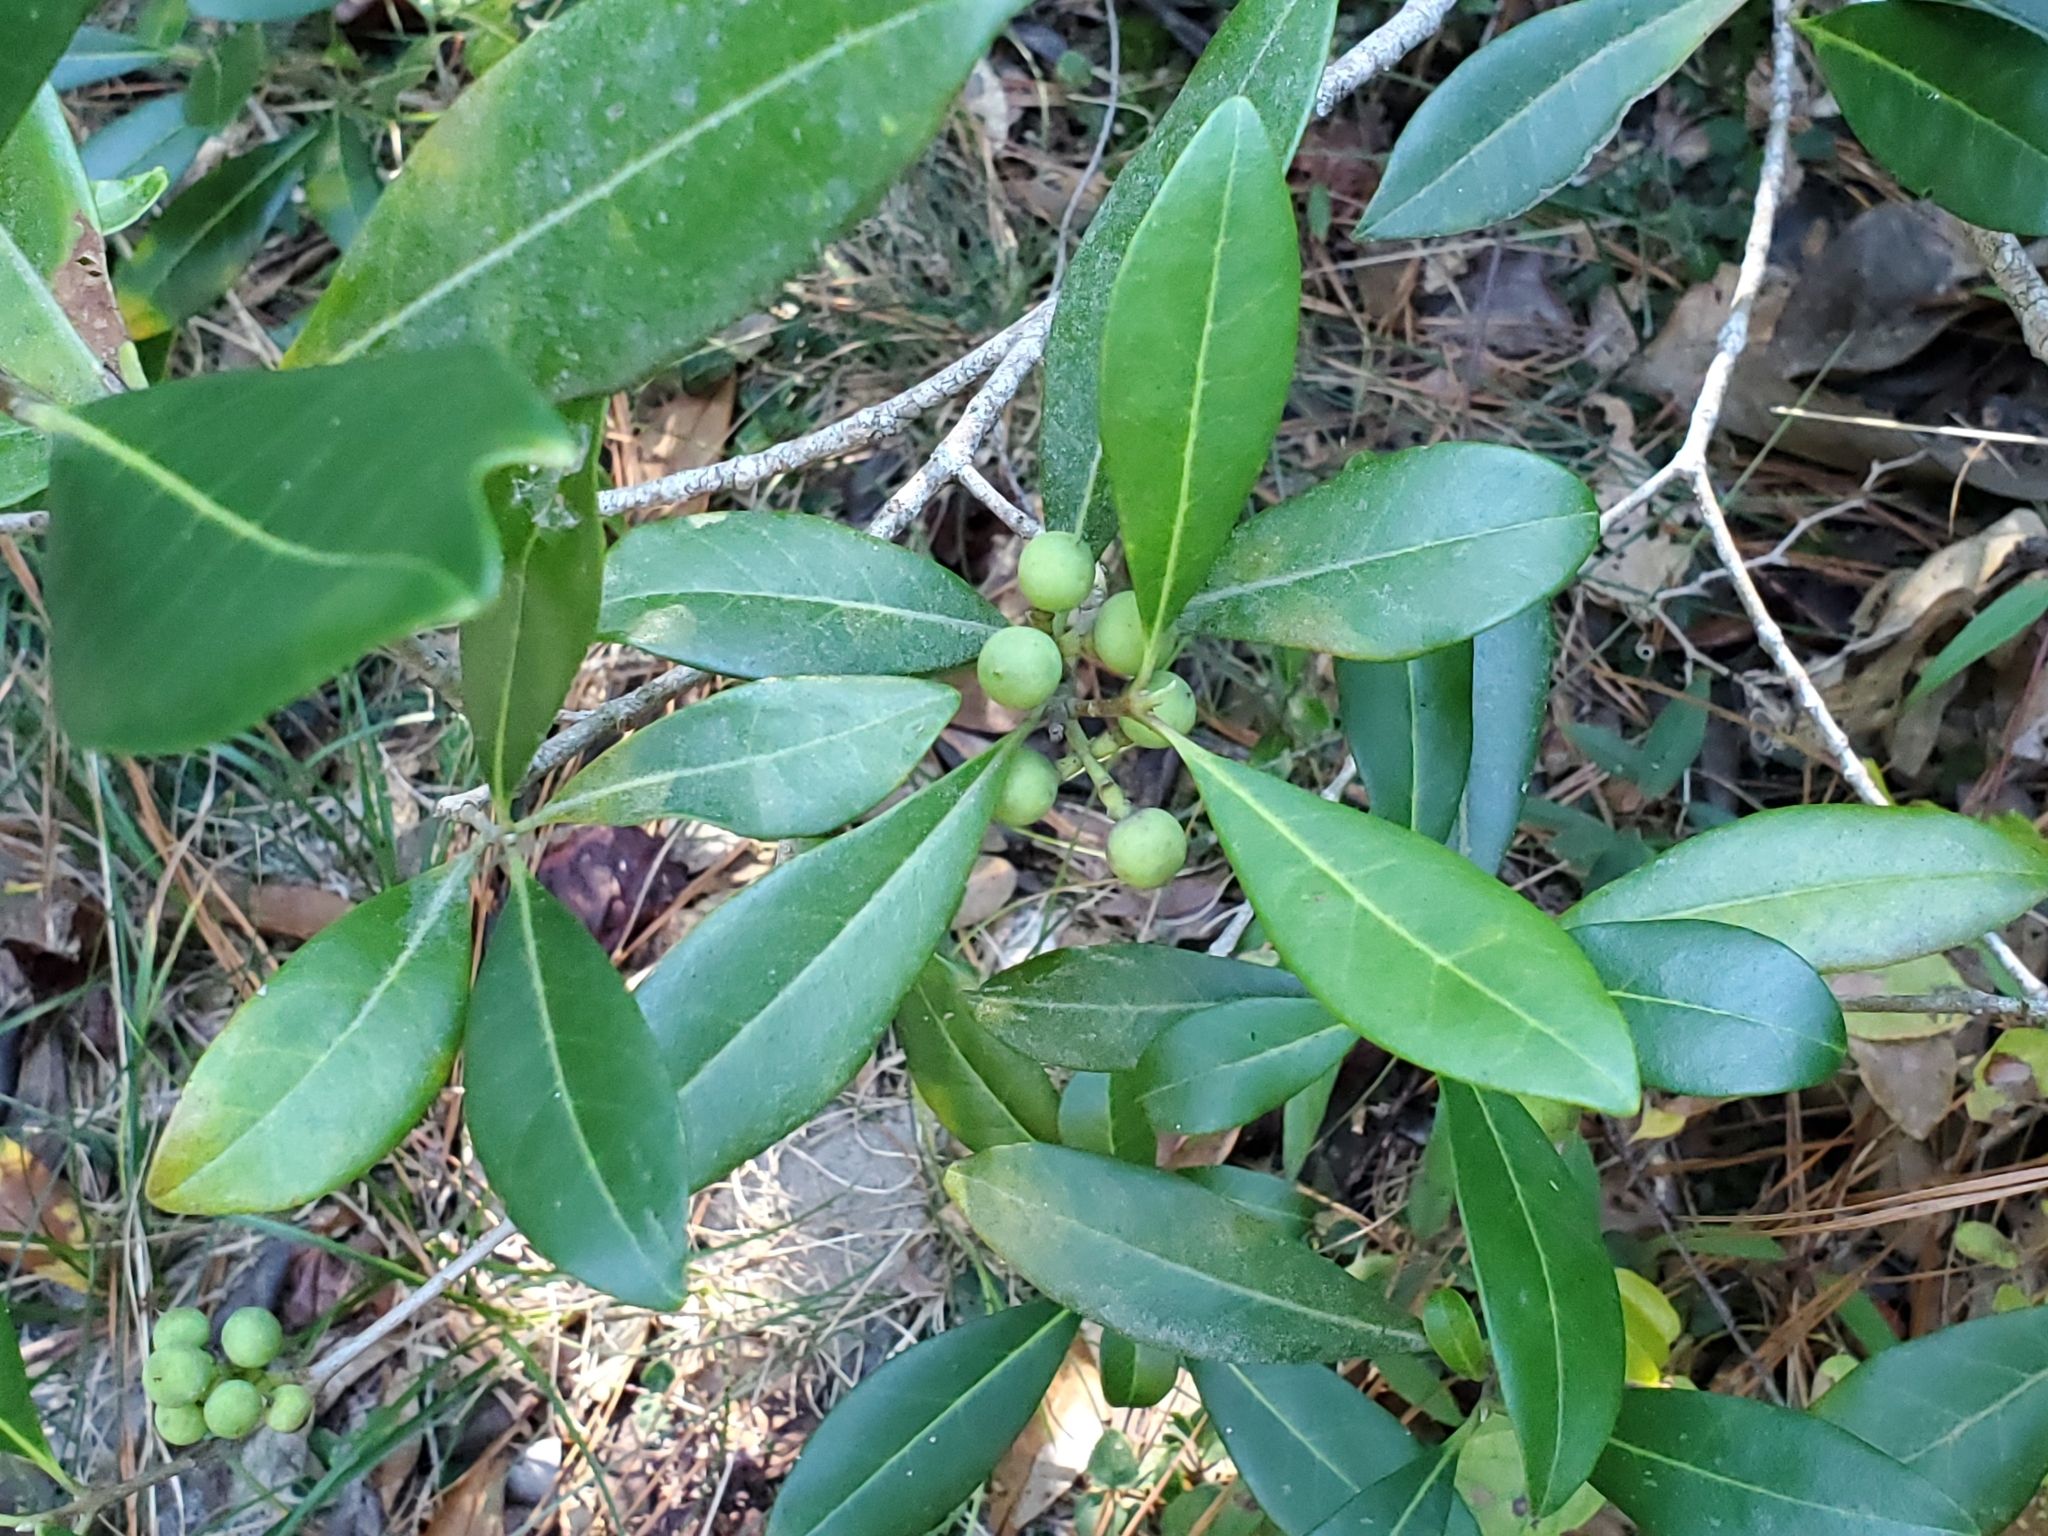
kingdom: Plantae
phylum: Tracheophyta
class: Magnoliopsida
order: Lamiales
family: Oleaceae
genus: Cartrema
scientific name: Cartrema americana
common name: Devilwood
